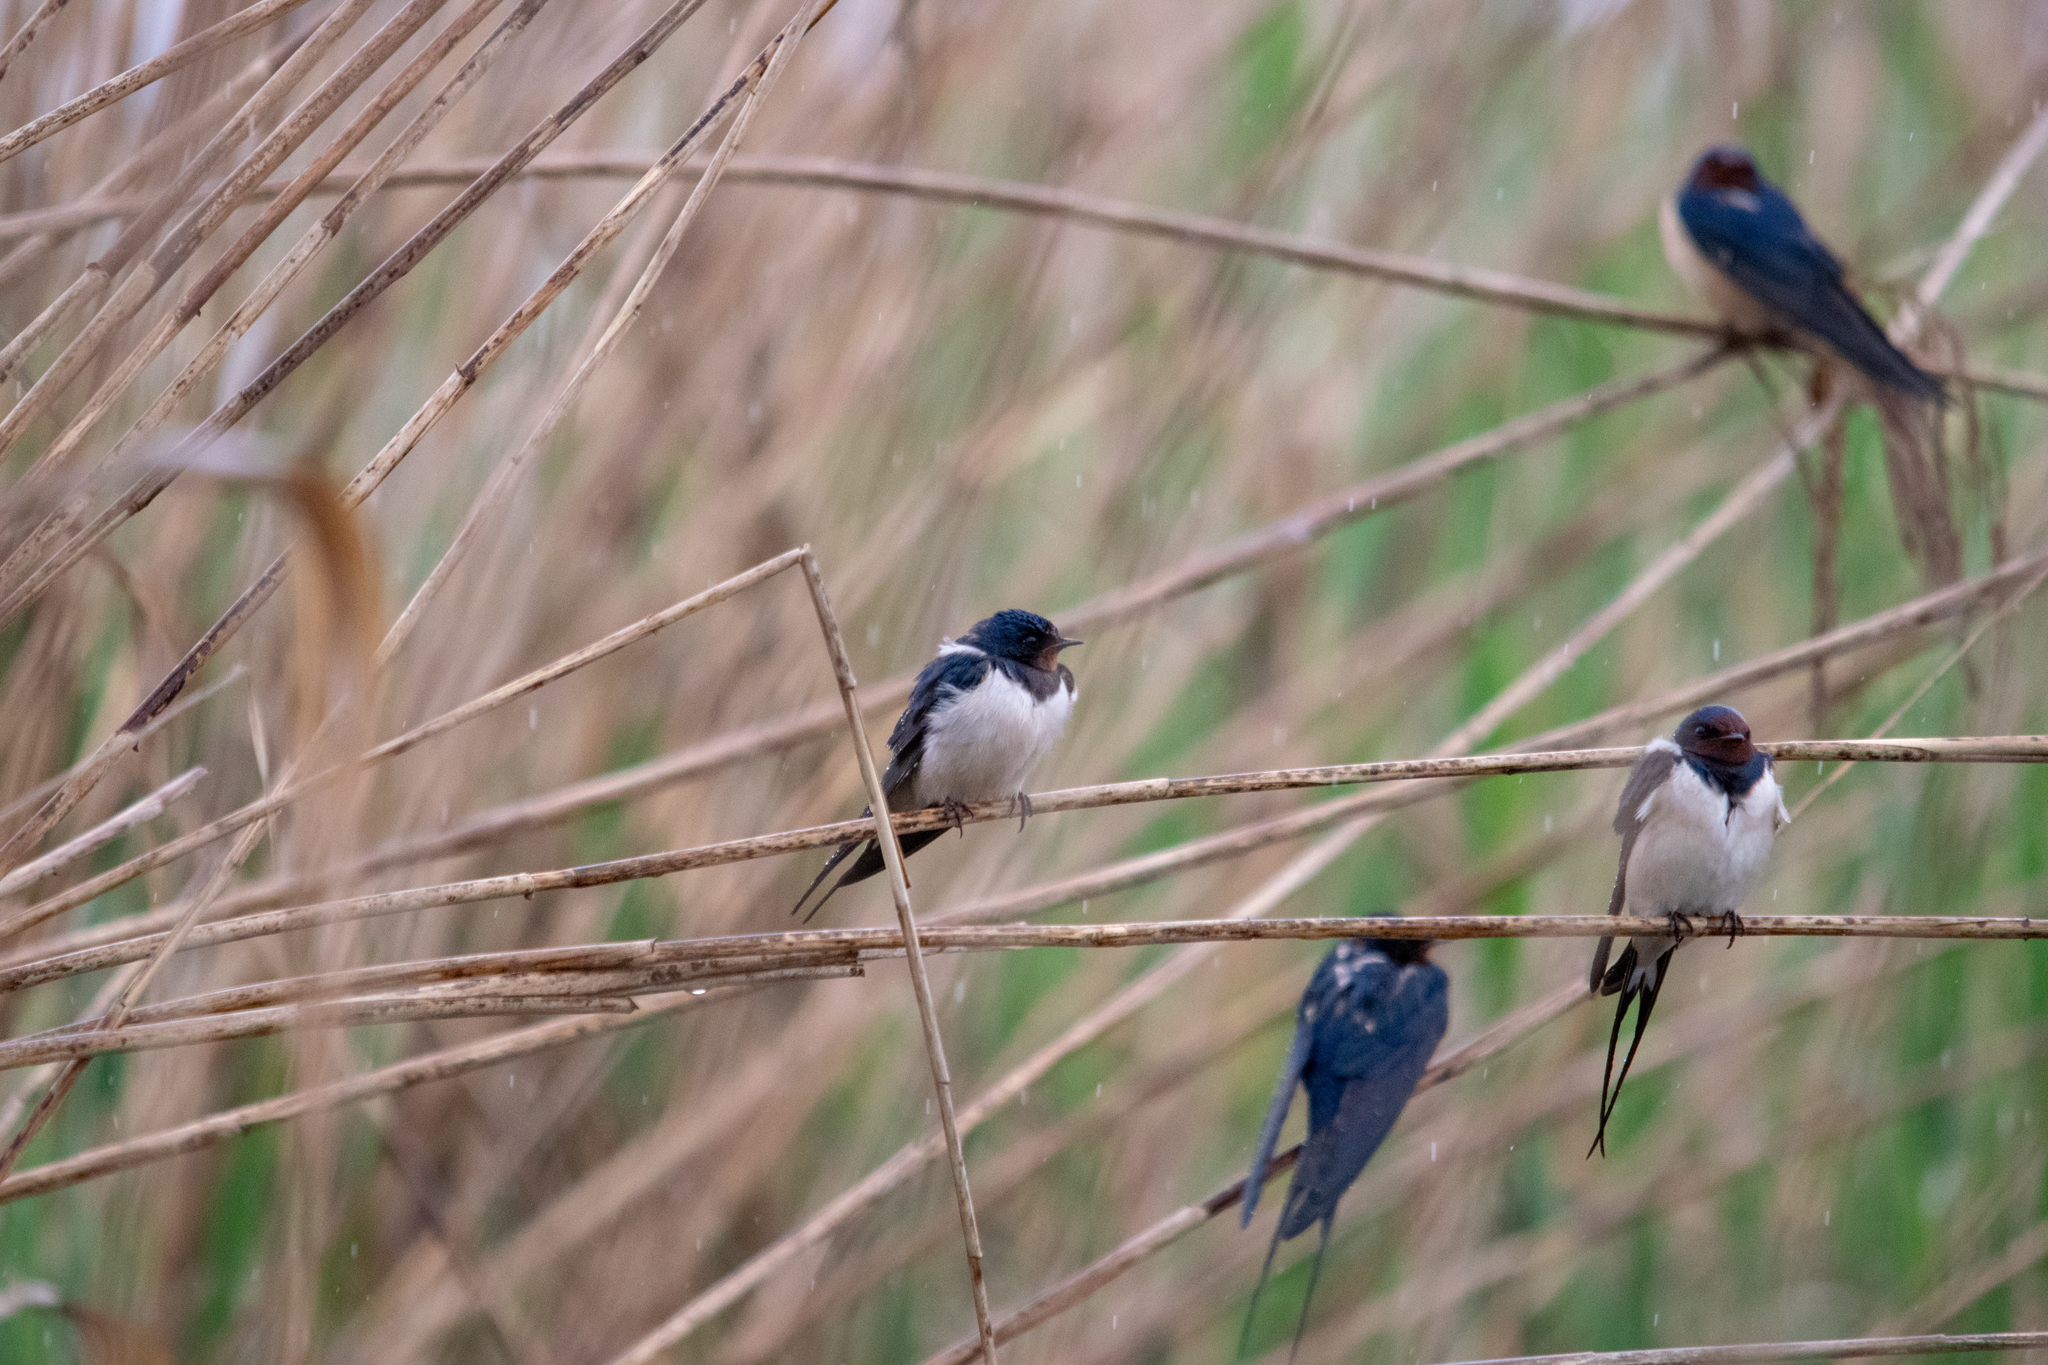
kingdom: Animalia
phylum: Chordata
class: Aves
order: Passeriformes
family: Hirundinidae
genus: Hirundo
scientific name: Hirundo rustica
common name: Barn swallow
